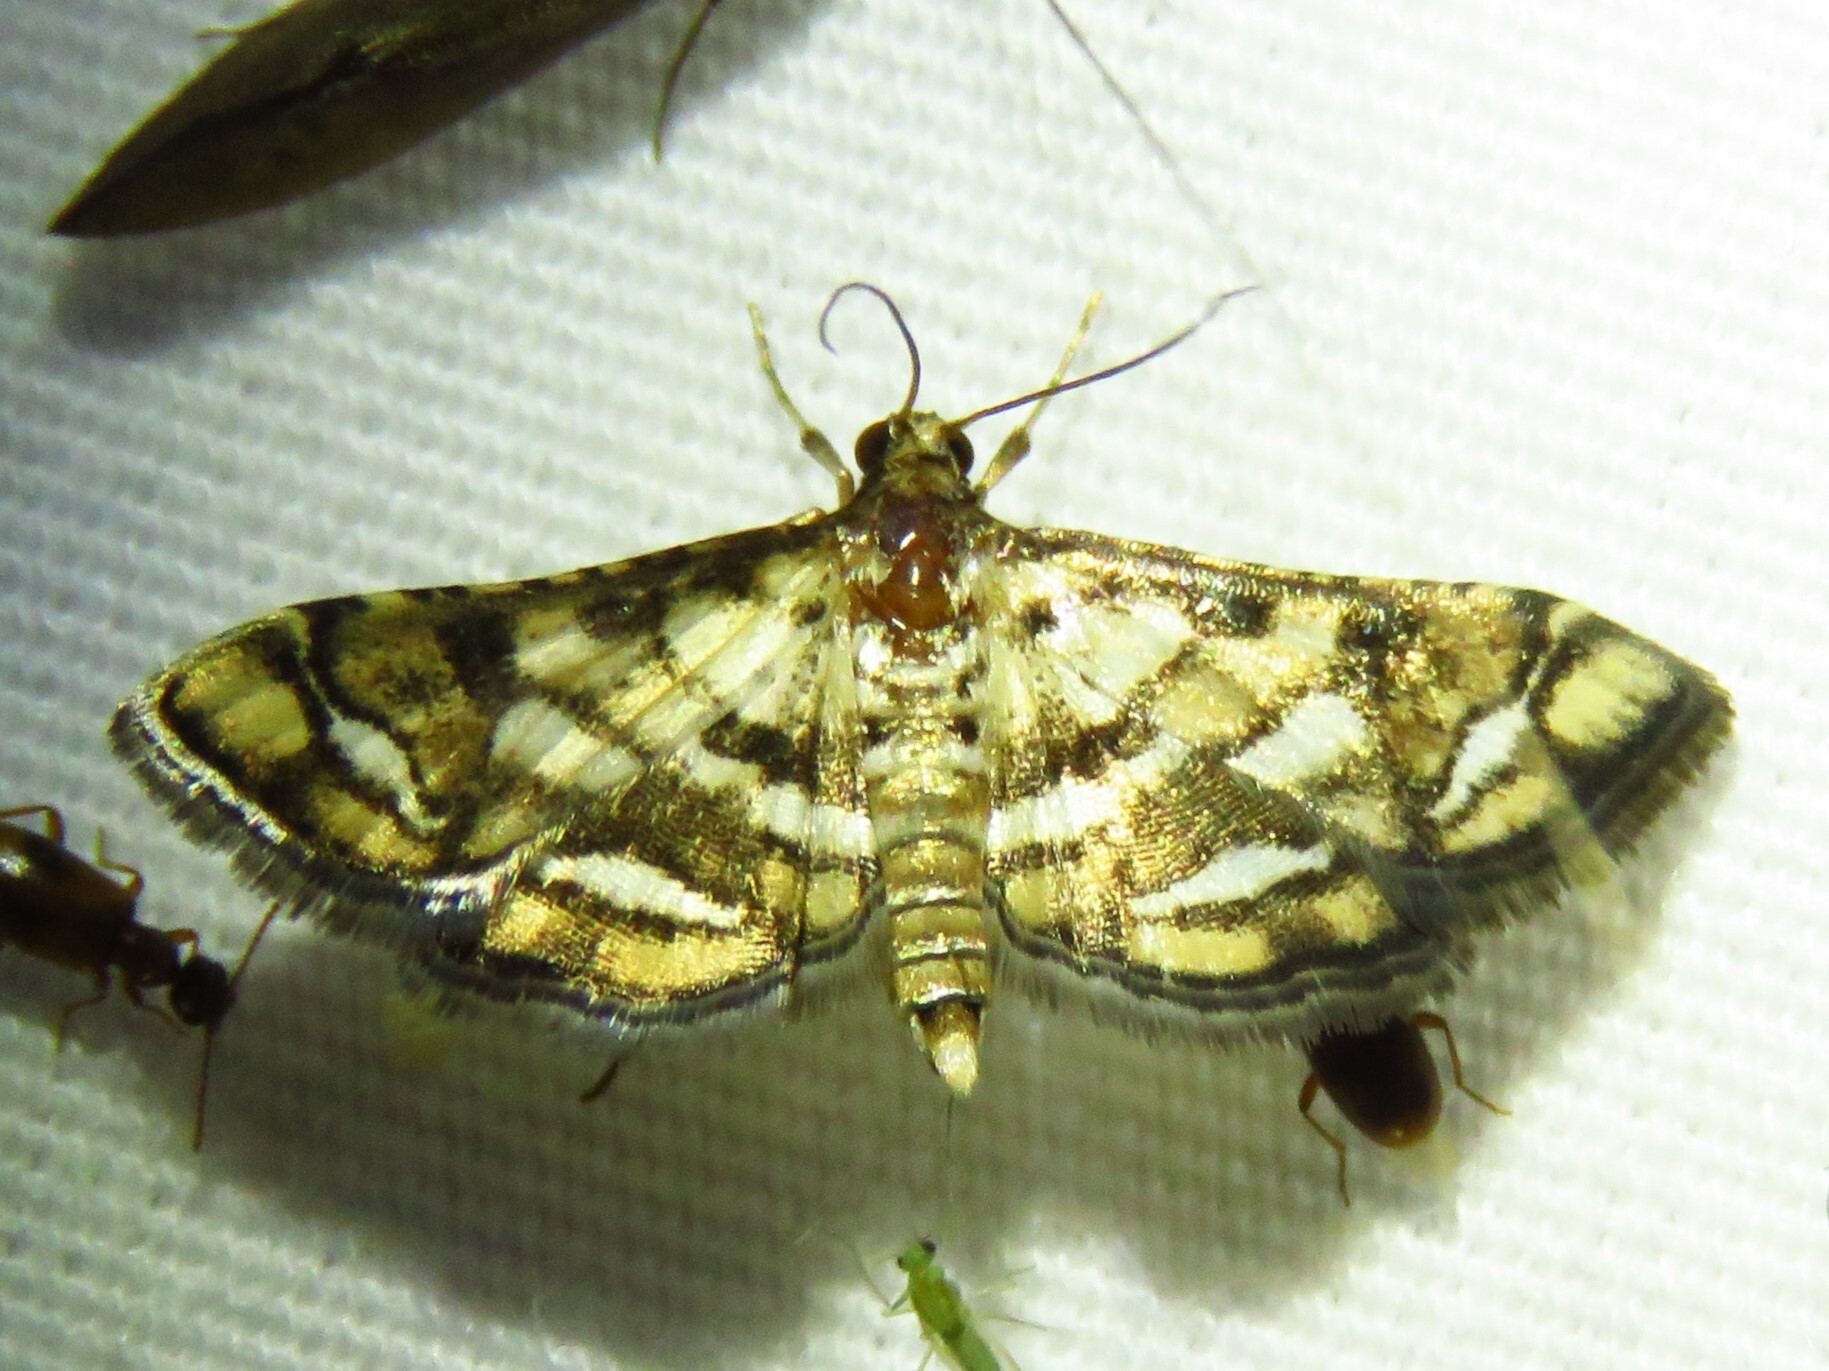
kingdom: Animalia
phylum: Arthropoda
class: Insecta
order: Lepidoptera
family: Crambidae
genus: Hileithia
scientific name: Hileithia magualis
